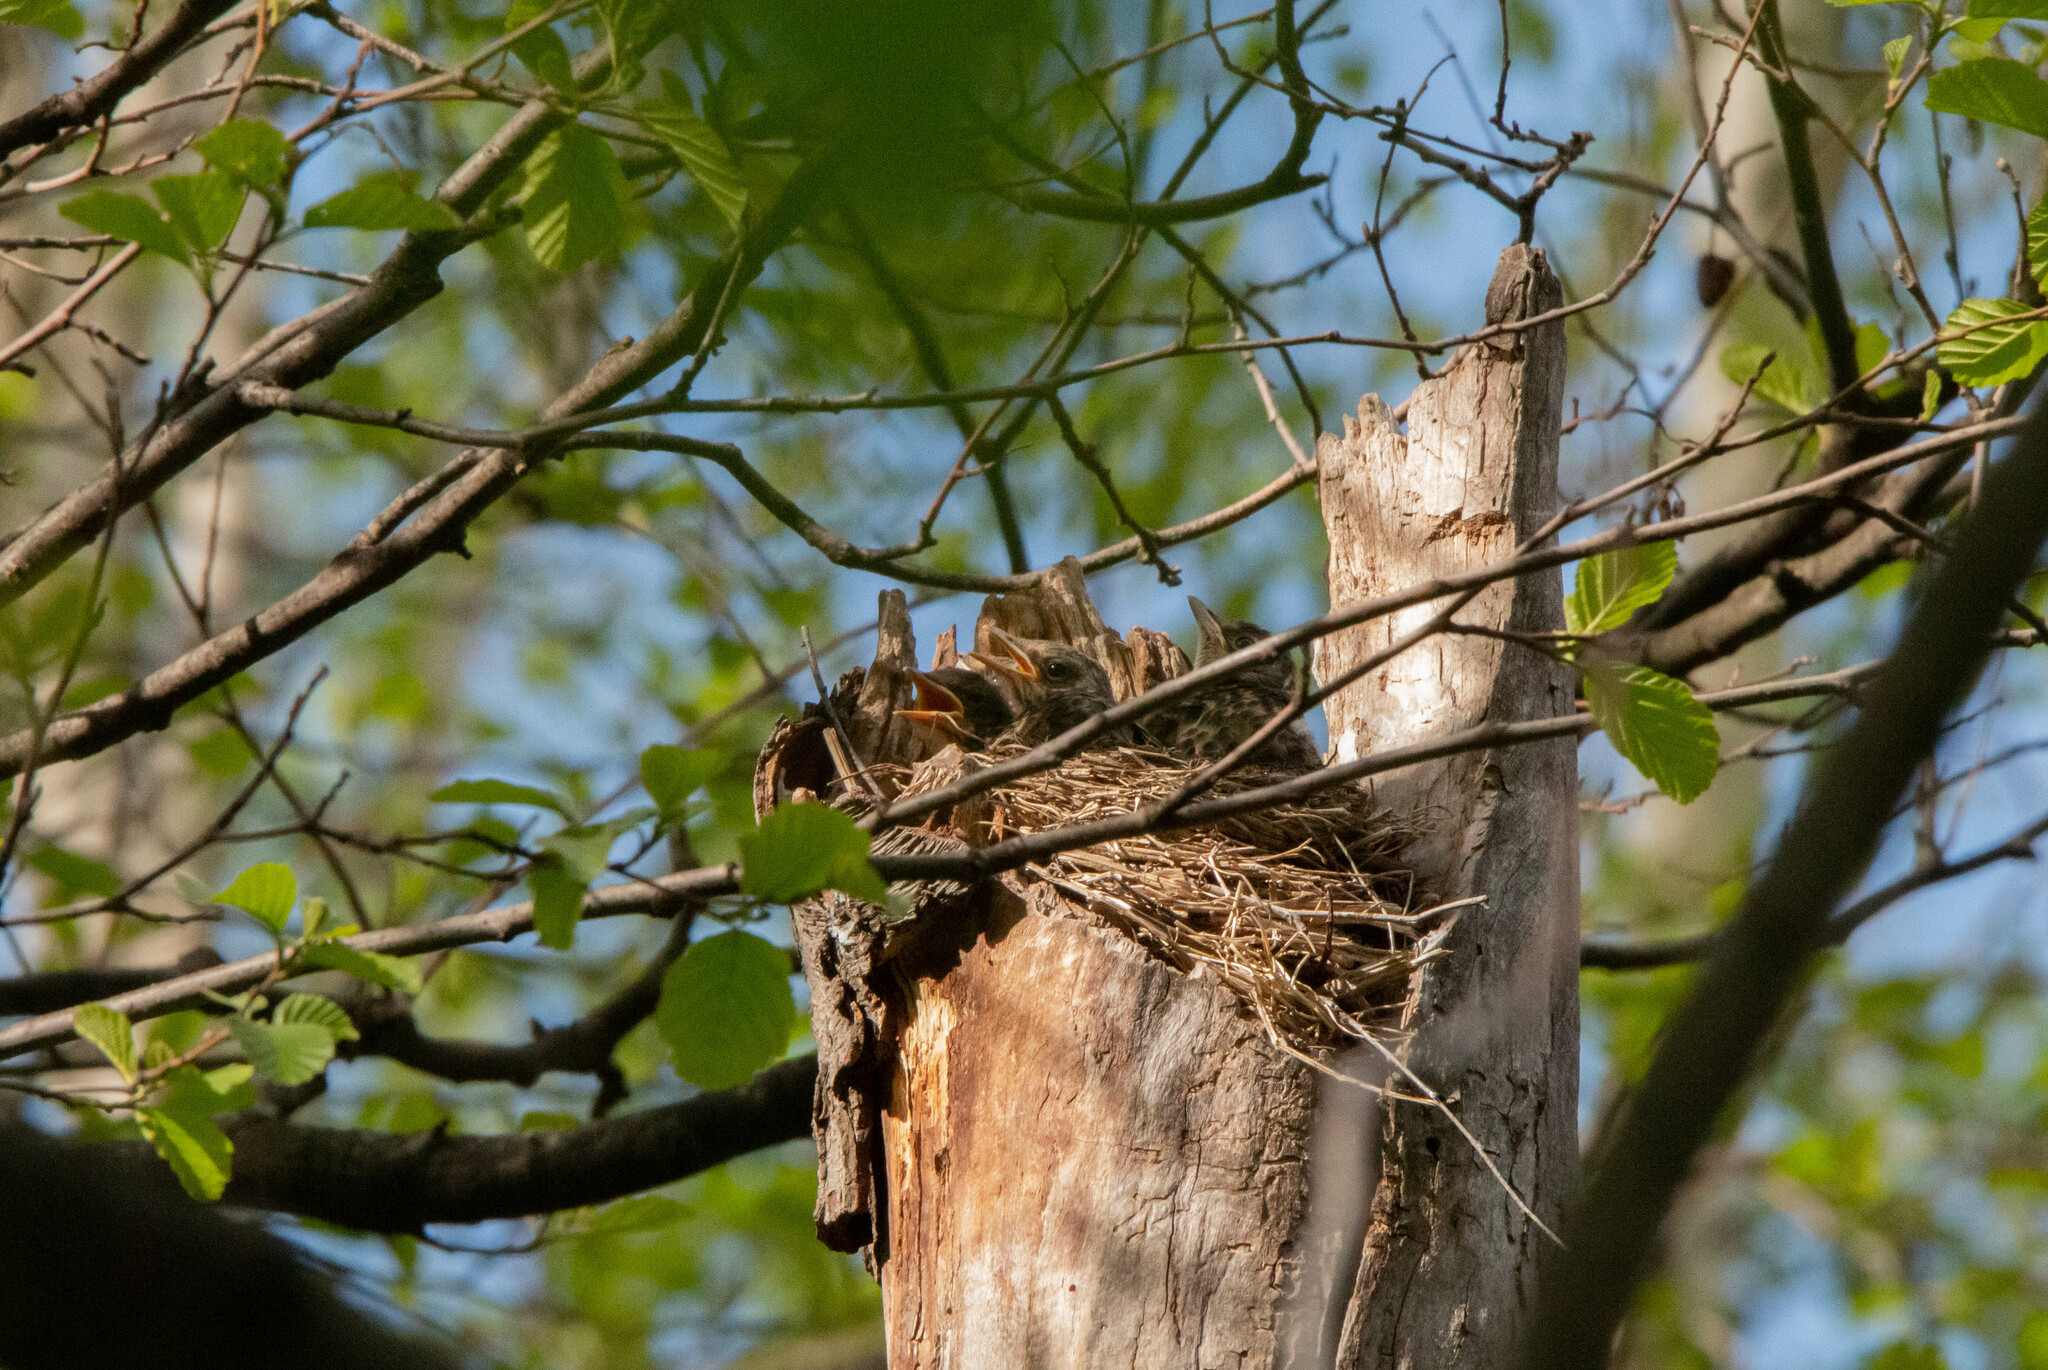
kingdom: Animalia
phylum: Chordata
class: Aves
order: Passeriformes
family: Turdidae
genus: Turdus
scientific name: Turdus pilaris
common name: Fieldfare
